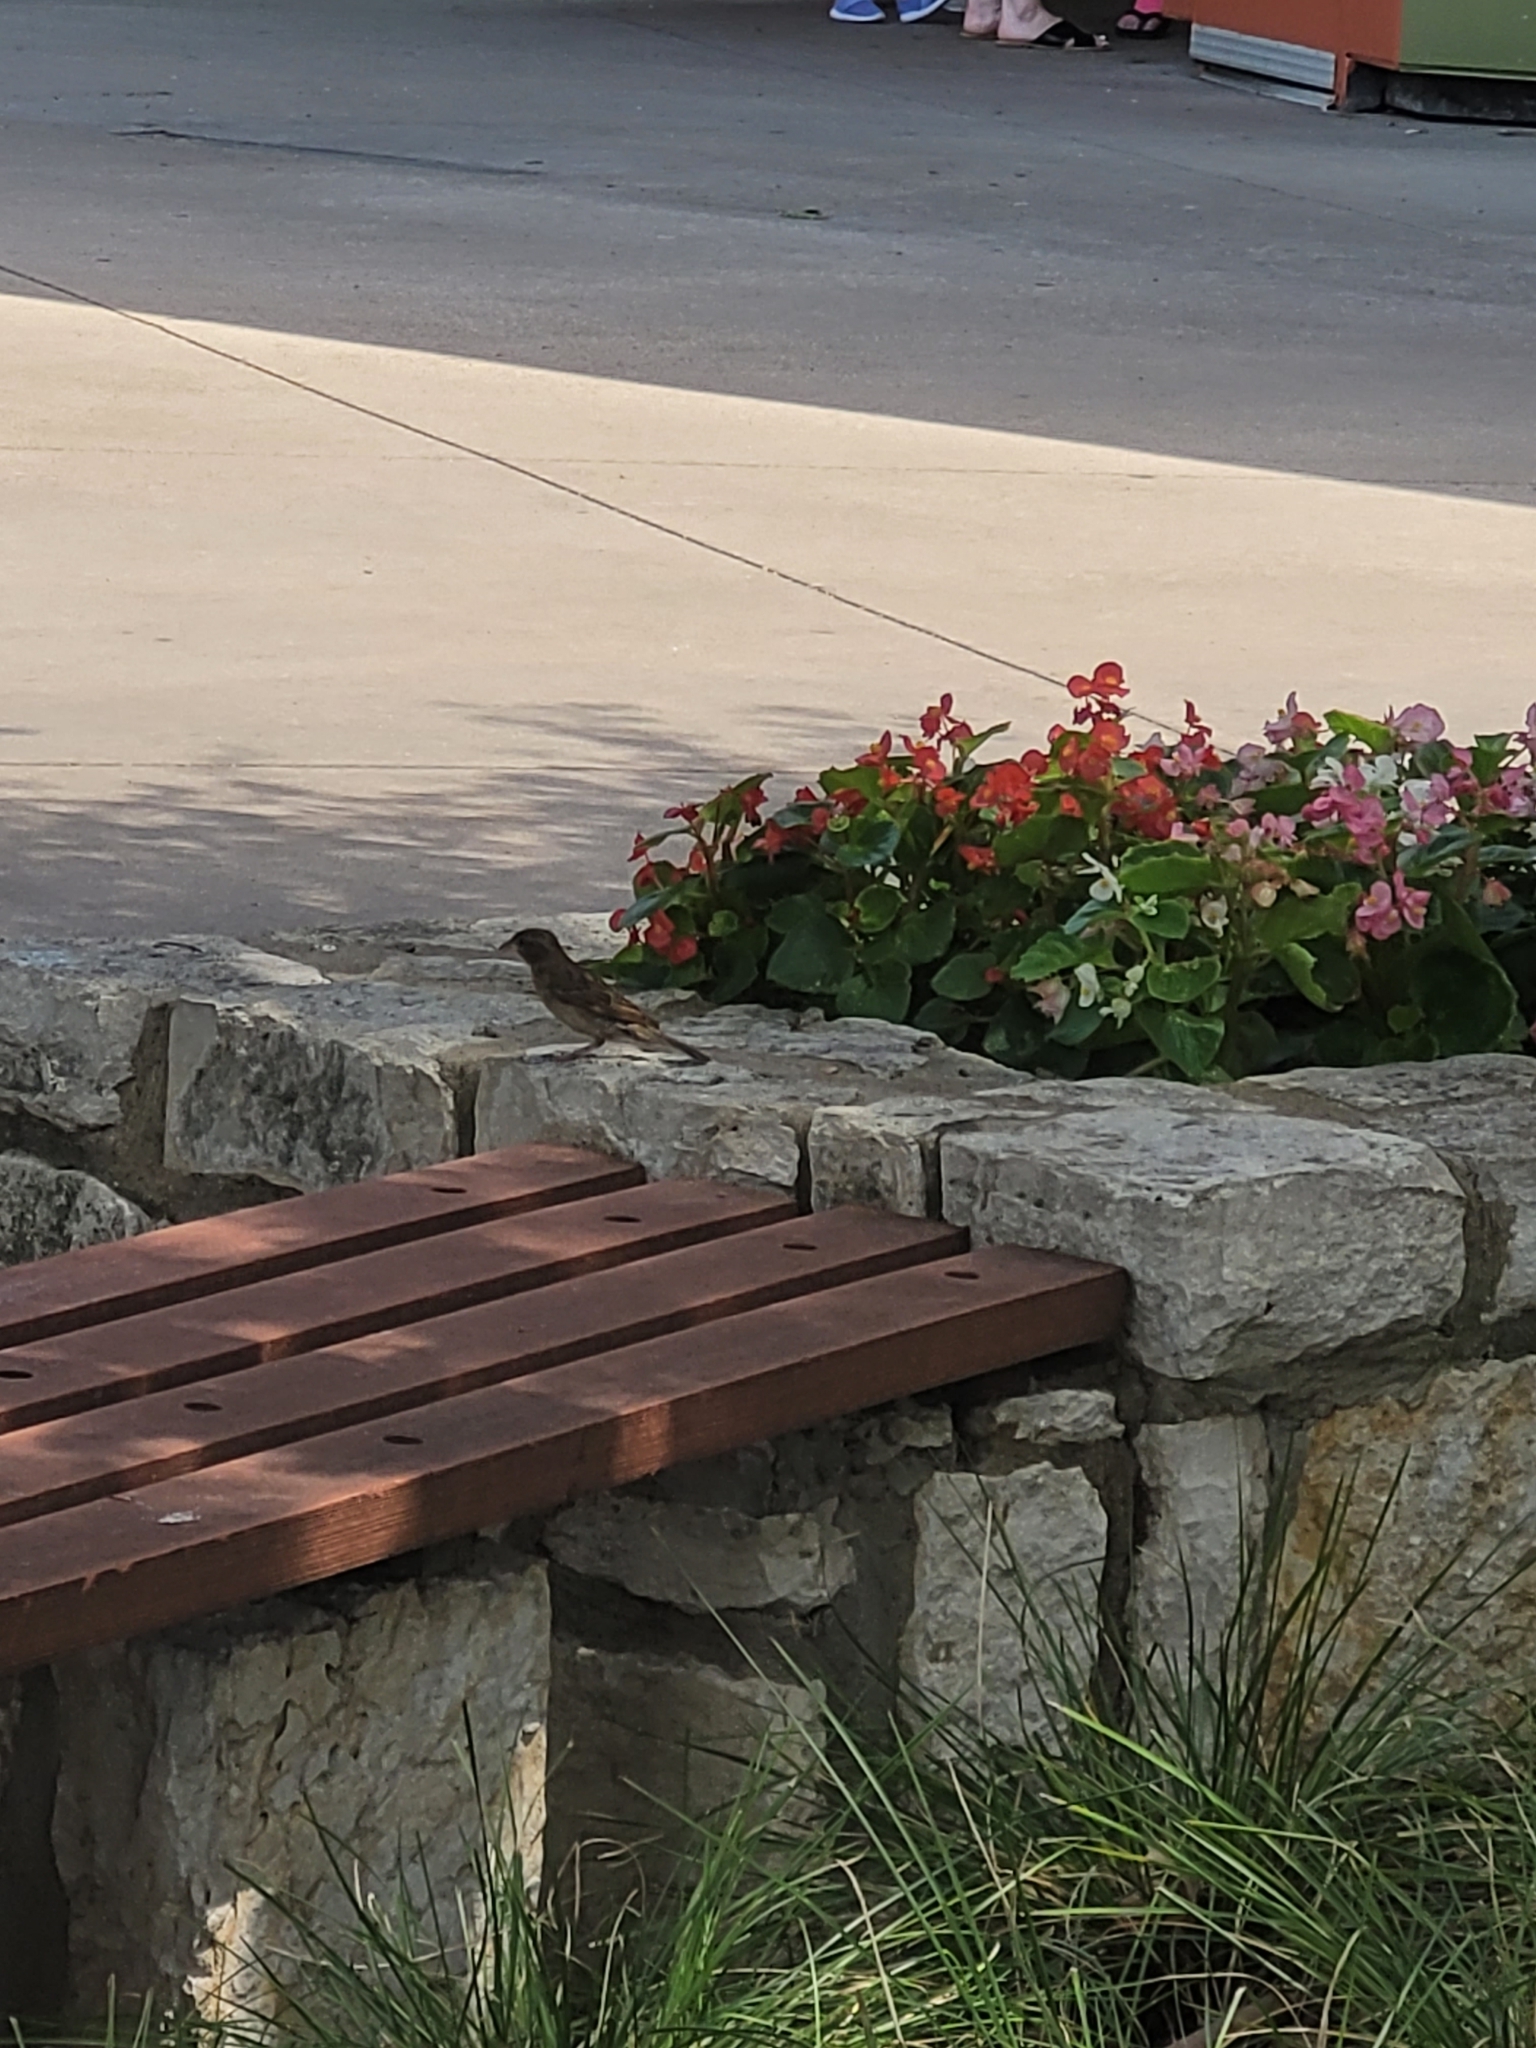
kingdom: Animalia
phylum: Chordata
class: Aves
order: Passeriformes
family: Passeridae
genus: Passer
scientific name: Passer domesticus
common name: House sparrow
